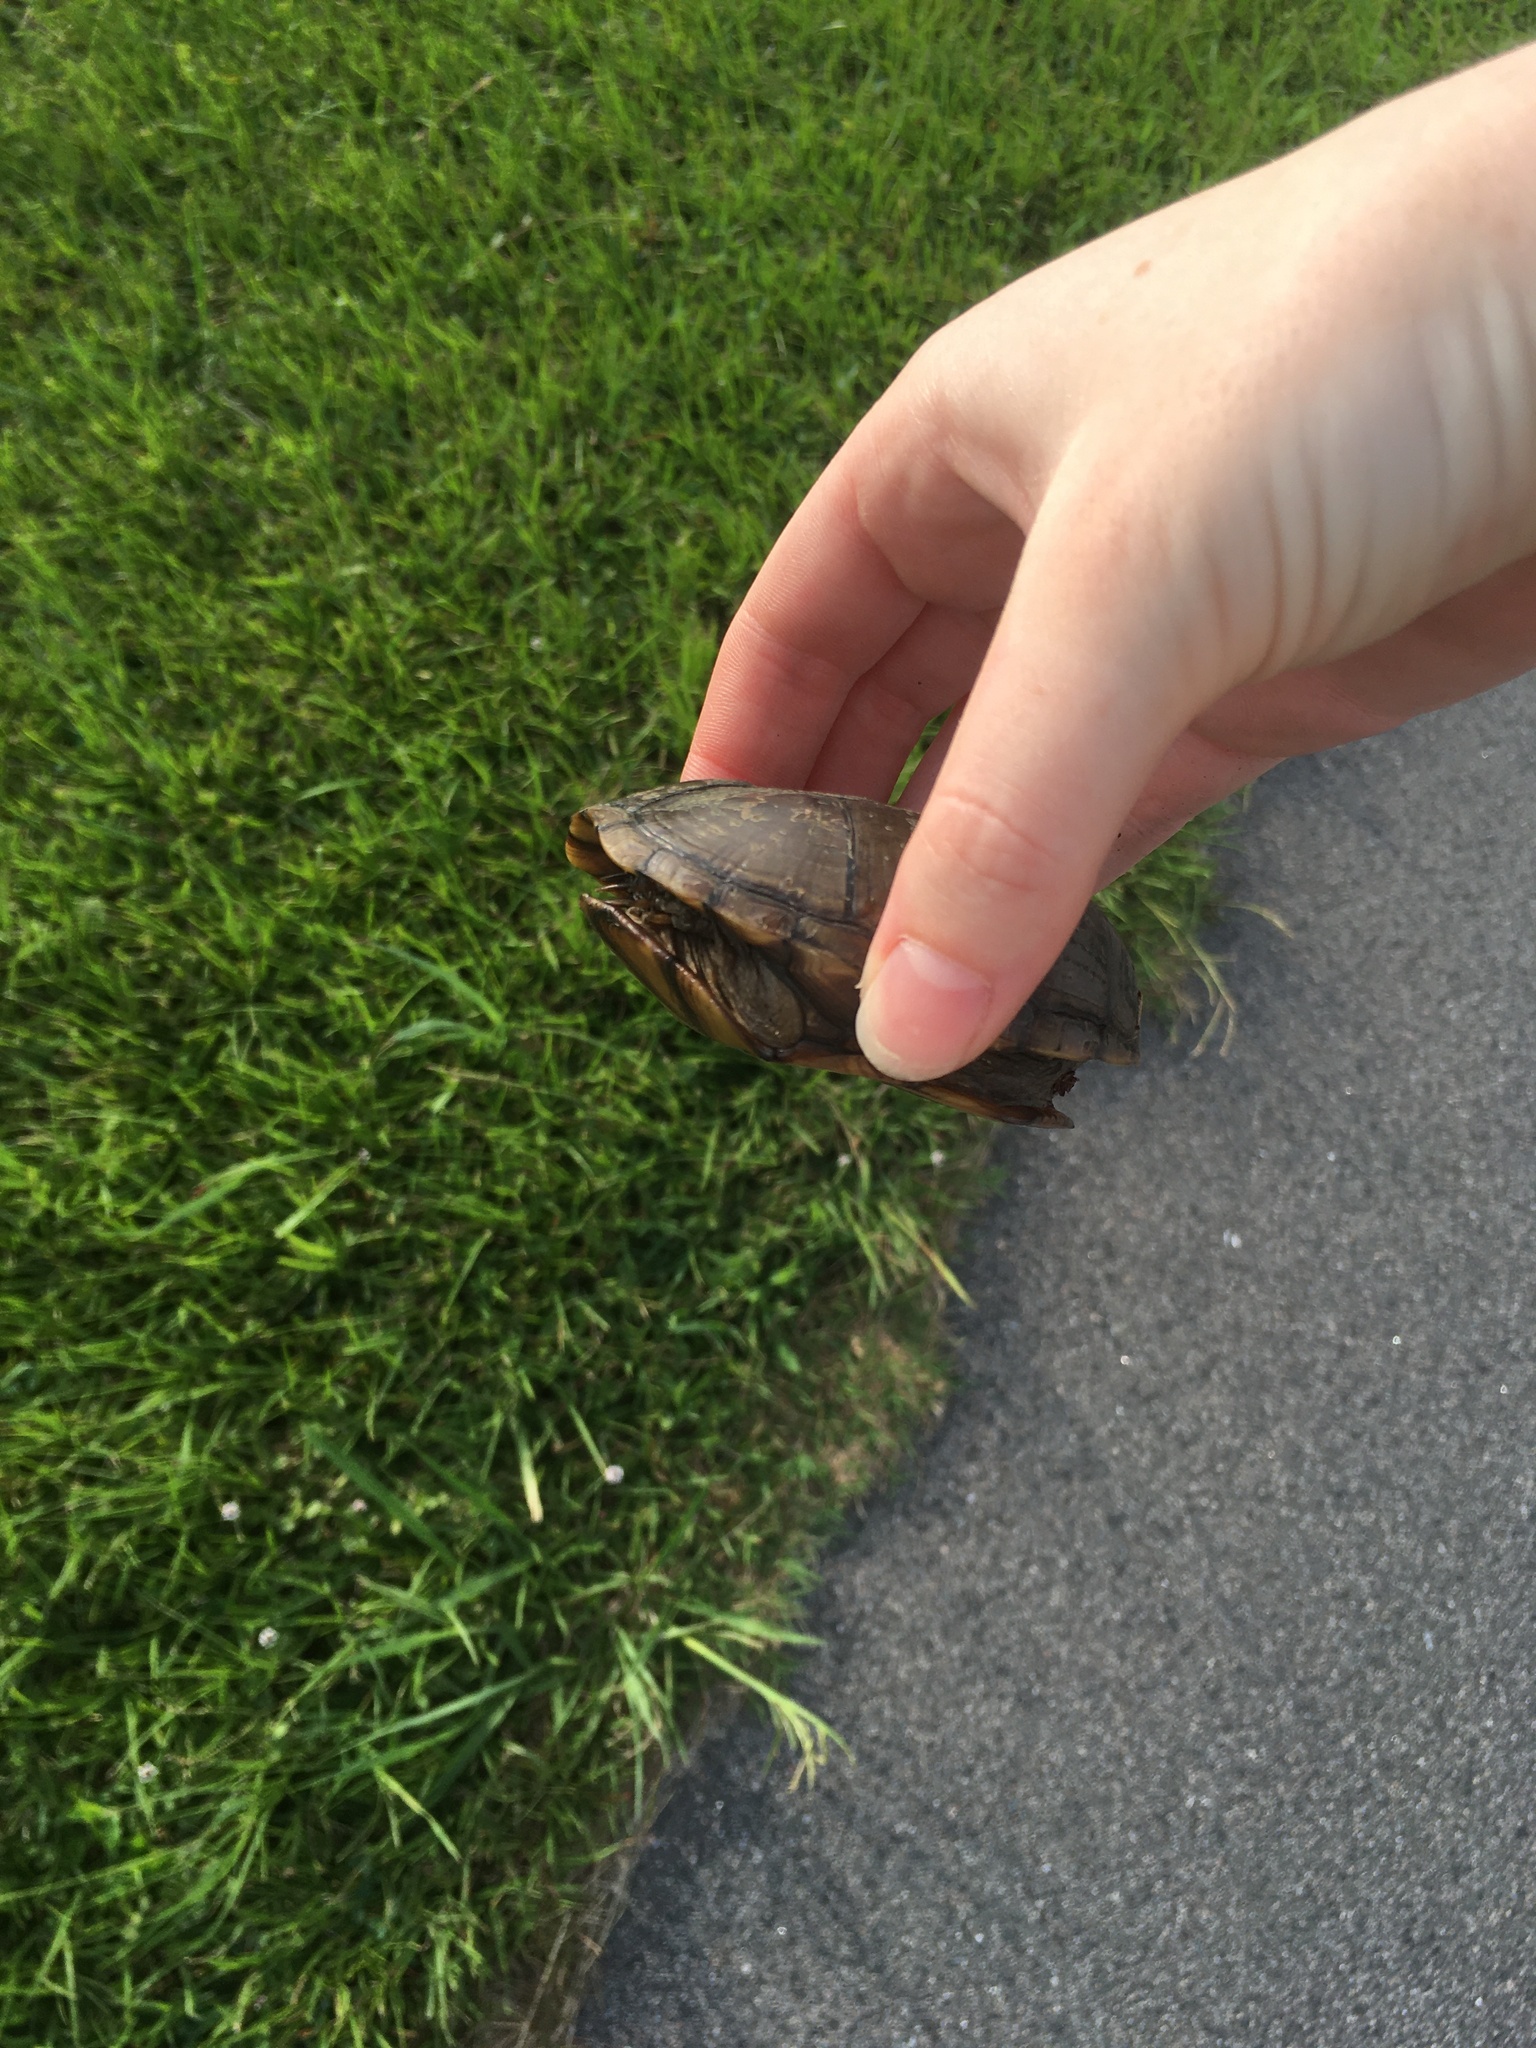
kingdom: Animalia
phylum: Chordata
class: Testudines
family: Kinosternidae
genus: Kinosternon
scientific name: Kinosternon subrubrum
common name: Eastern mud turtle
